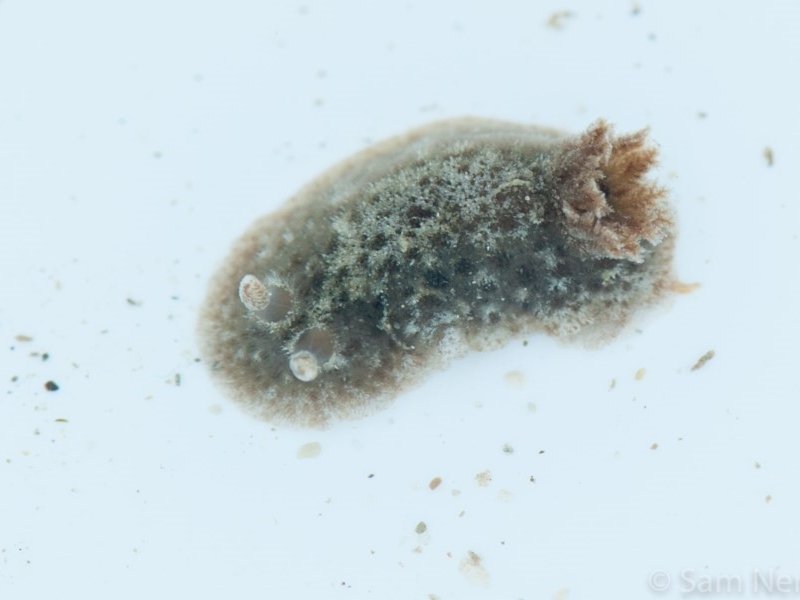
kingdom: Animalia
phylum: Mollusca
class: Gastropoda
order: Nudibranchia
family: Discodorididae
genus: Jorunna
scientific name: Jorunna pantherina
